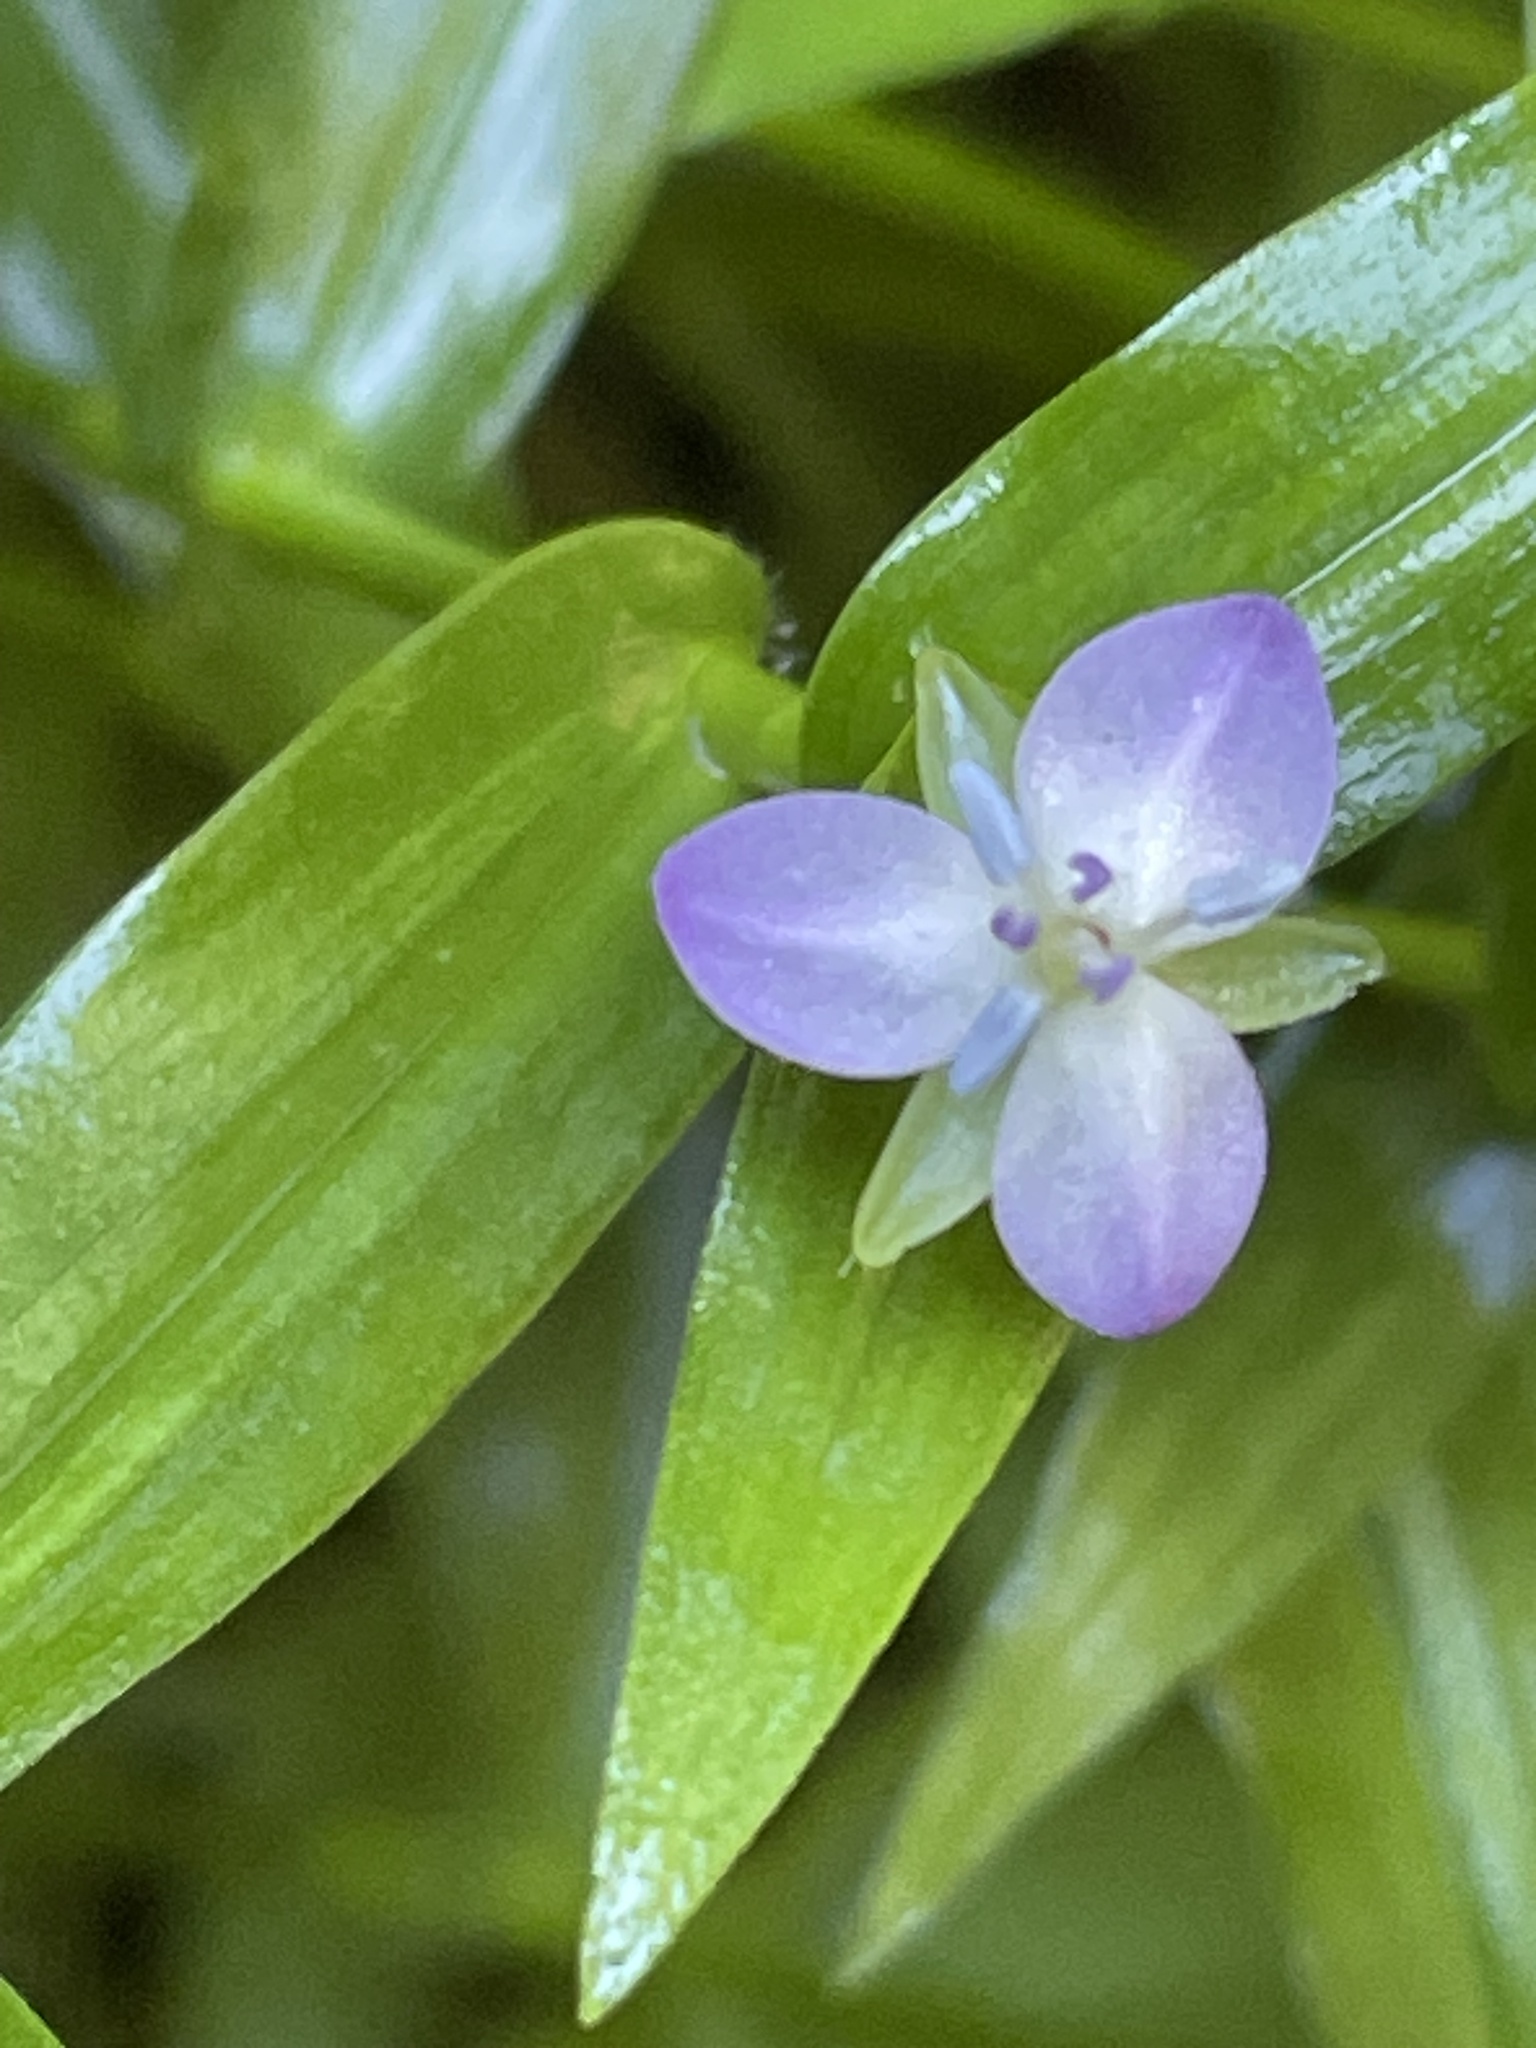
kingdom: Plantae
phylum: Tracheophyta
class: Liliopsida
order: Commelinales
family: Commelinaceae
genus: Murdannia
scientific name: Murdannia keisak
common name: Wartremoving herb
